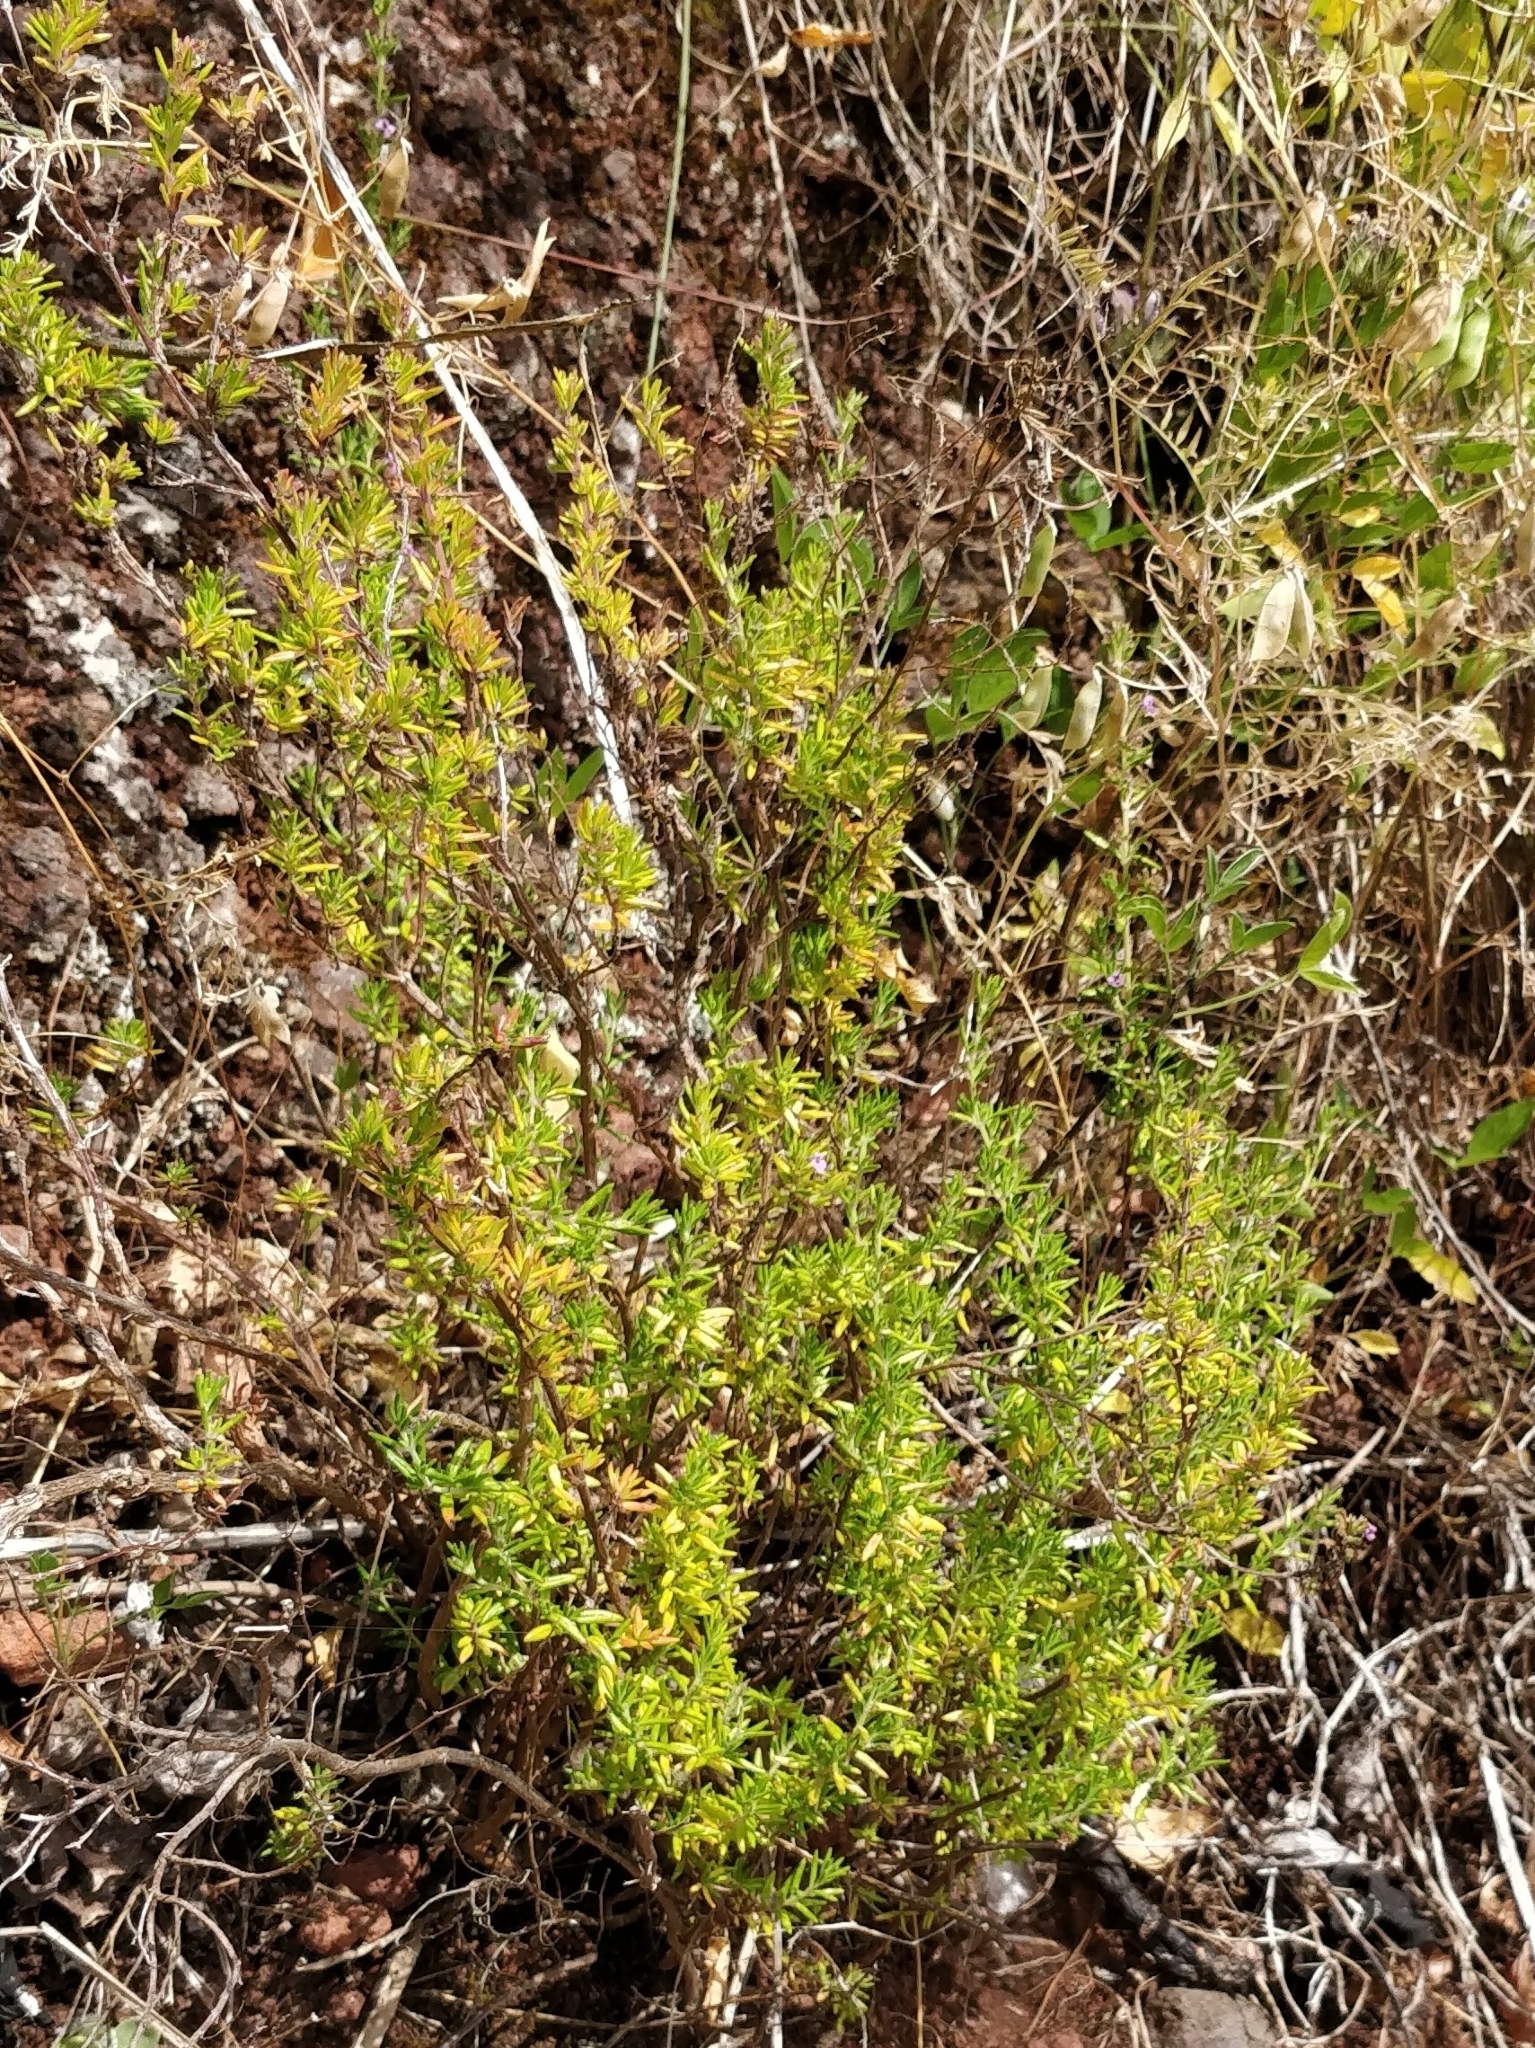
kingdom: Plantae
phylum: Tracheophyta
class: Magnoliopsida
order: Lamiales
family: Lamiaceae
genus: Micromeria
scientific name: Micromeria maderensis
